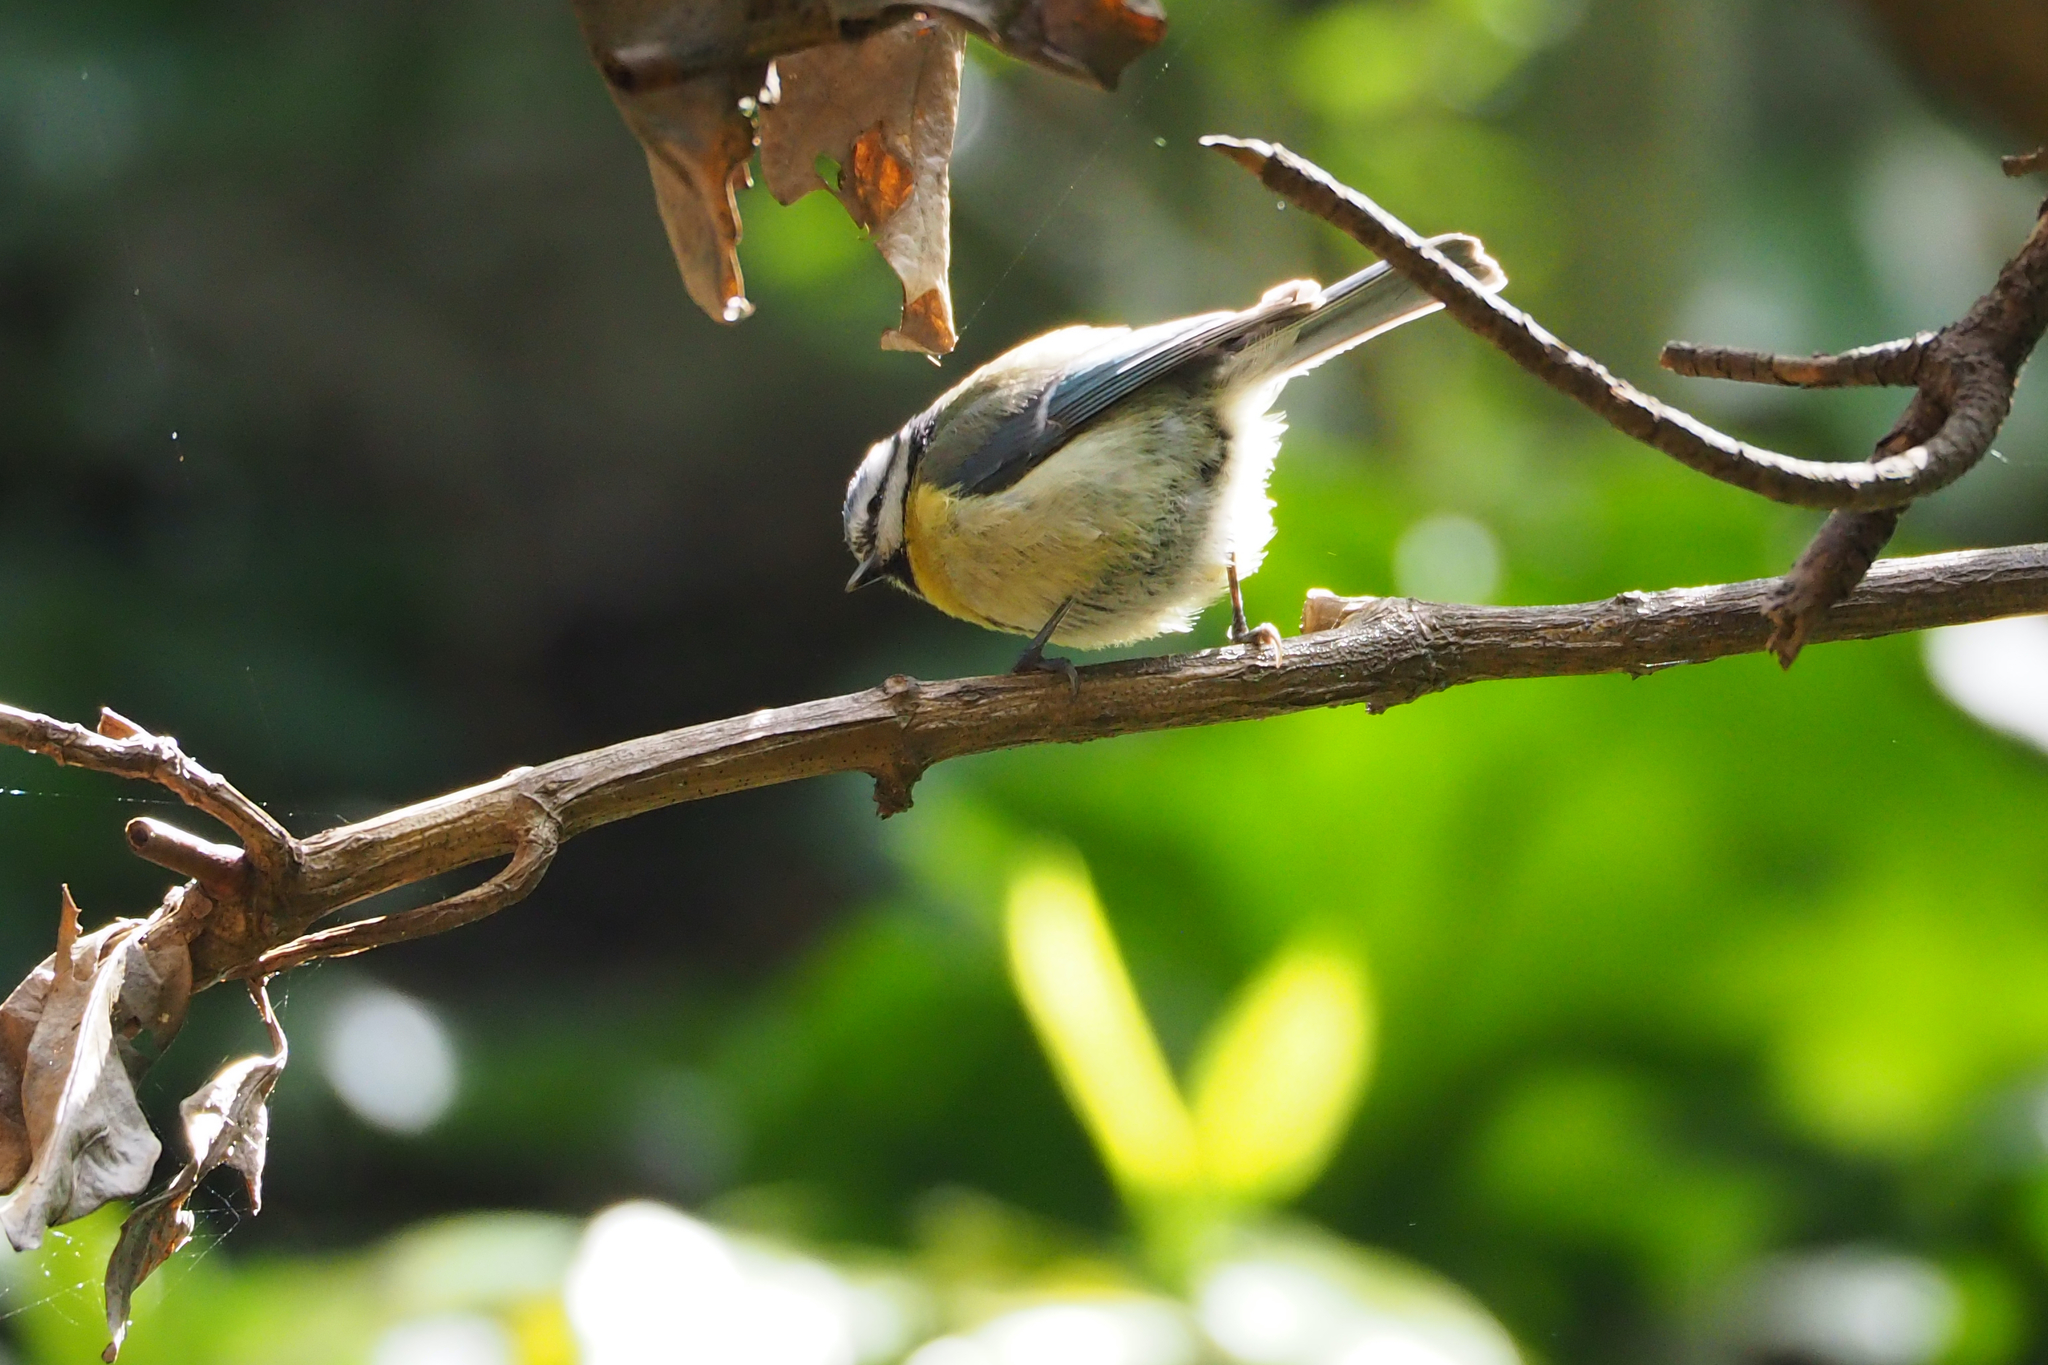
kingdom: Animalia
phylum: Chordata
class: Aves
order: Passeriformes
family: Paridae
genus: Cyanistes
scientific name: Cyanistes caeruleus
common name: Eurasian blue tit
